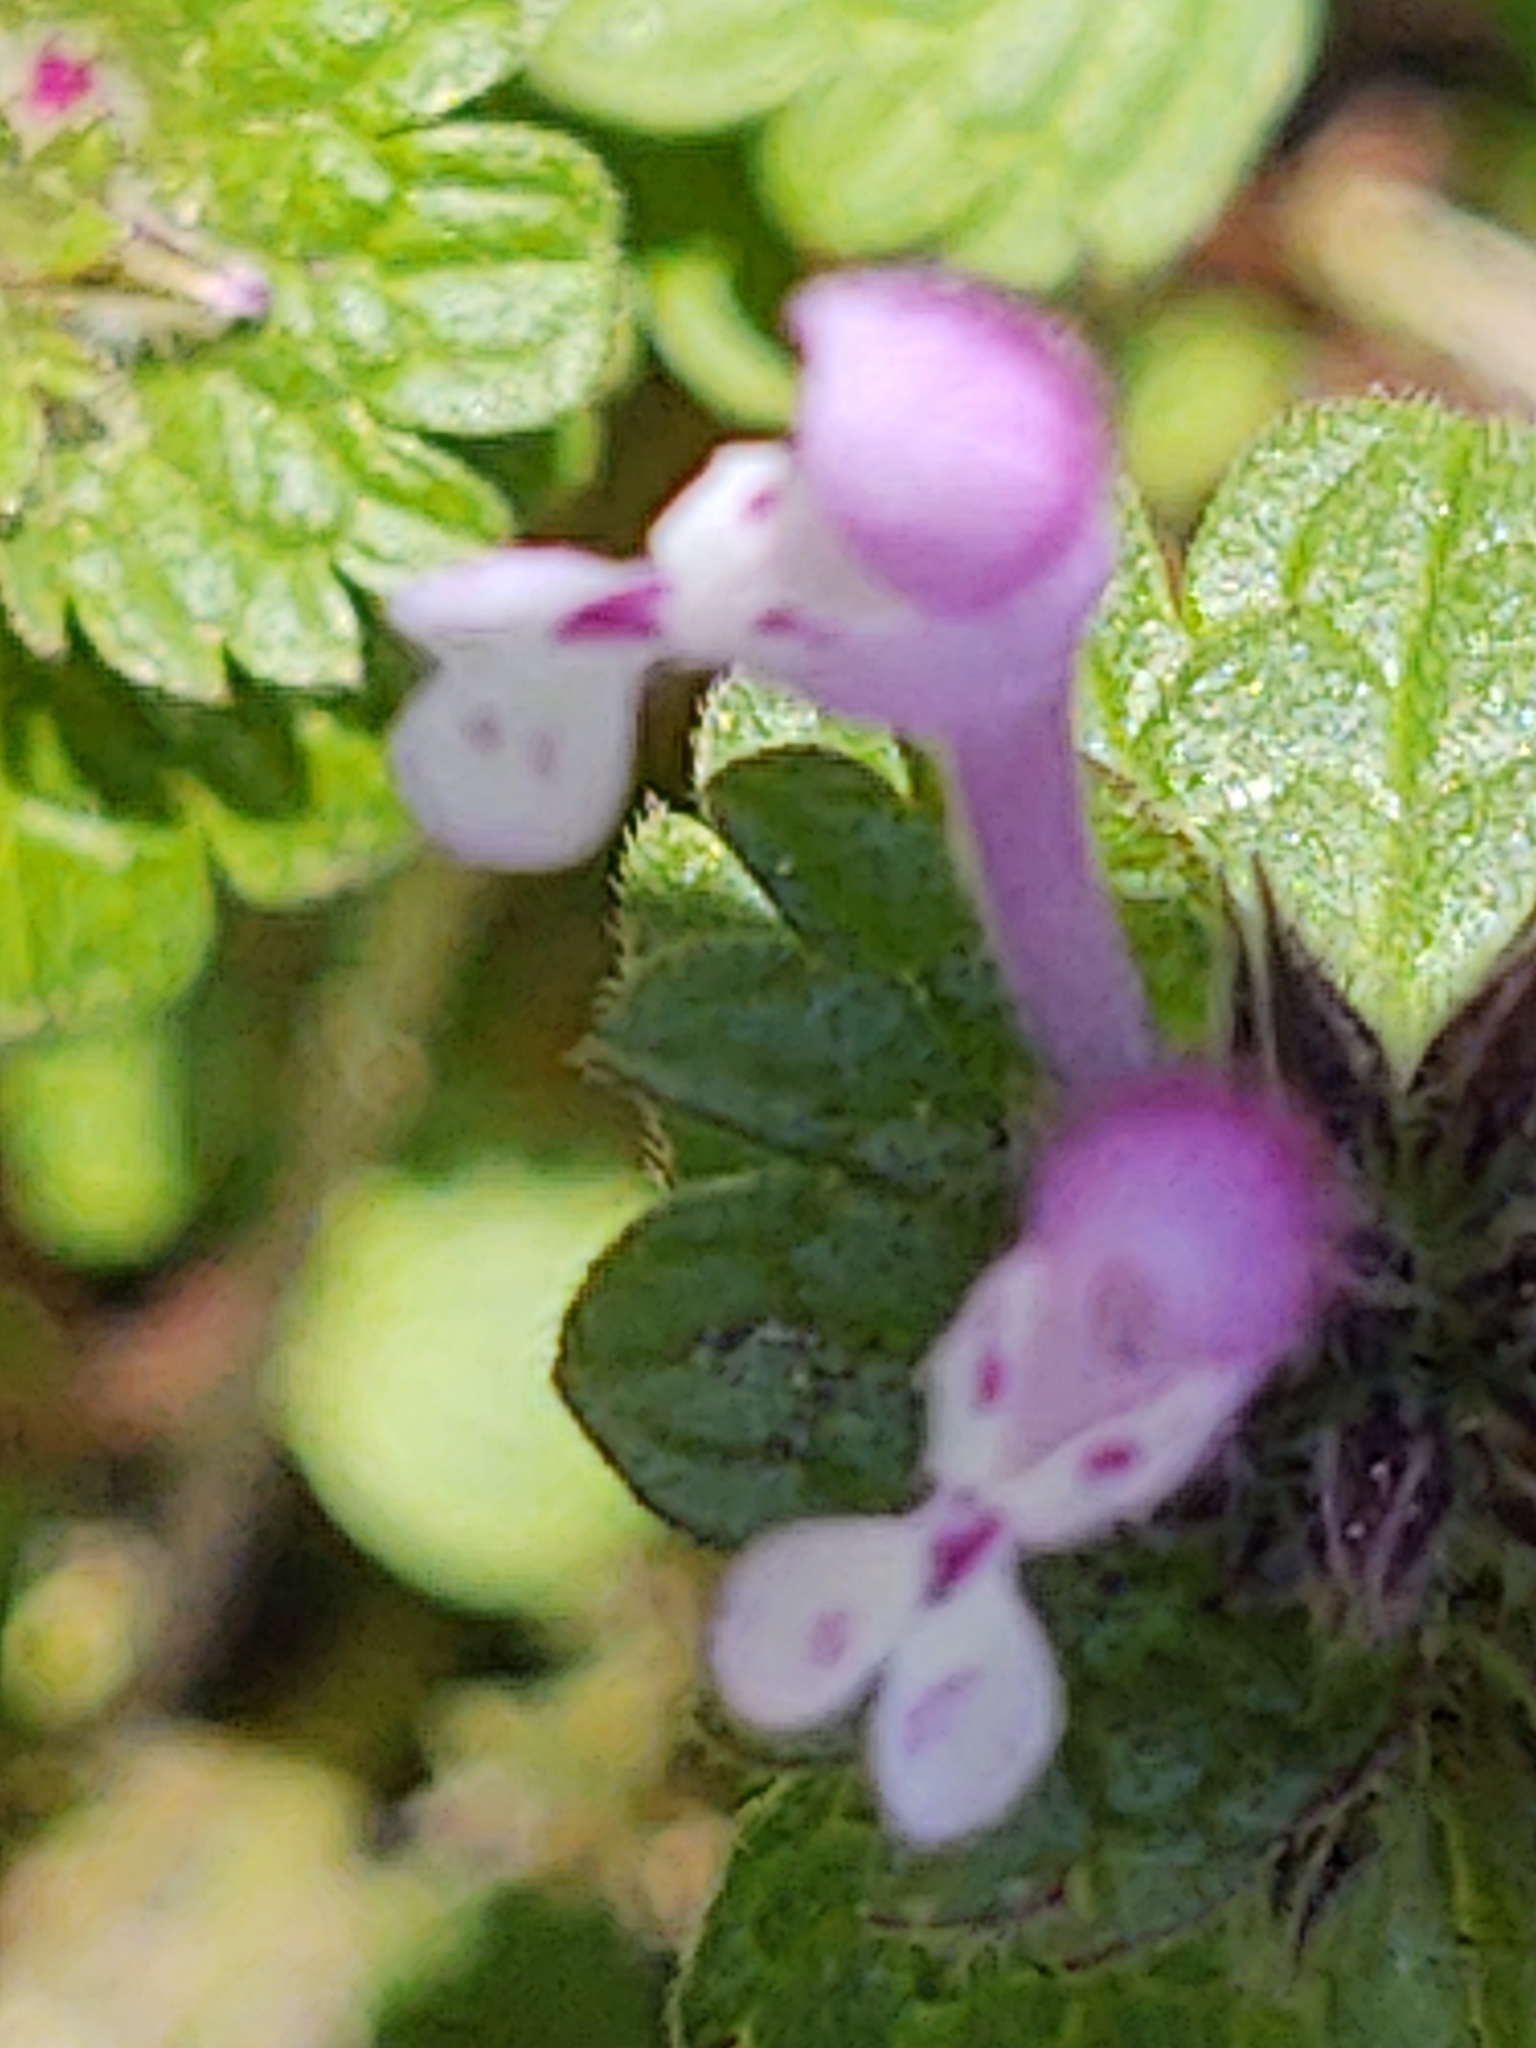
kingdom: Plantae
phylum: Tracheophyta
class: Magnoliopsida
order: Lamiales
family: Lamiaceae
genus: Lamium
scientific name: Lamium amplexicaule
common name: Henbit dead-nettle
